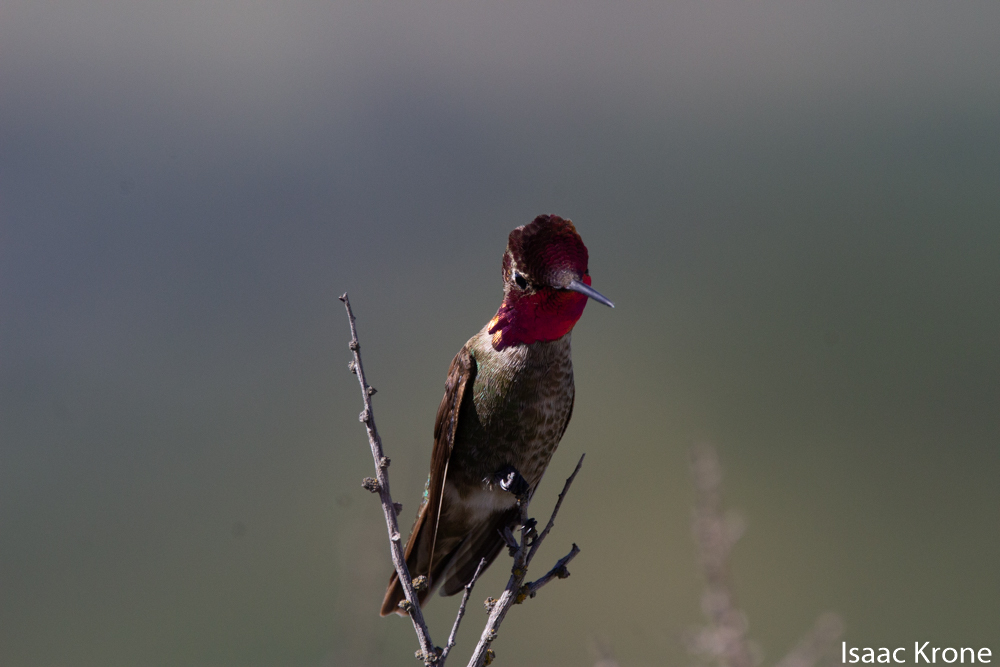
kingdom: Animalia
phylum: Chordata
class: Aves
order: Apodiformes
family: Trochilidae
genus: Calypte
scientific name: Calypte anna
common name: Anna's hummingbird
